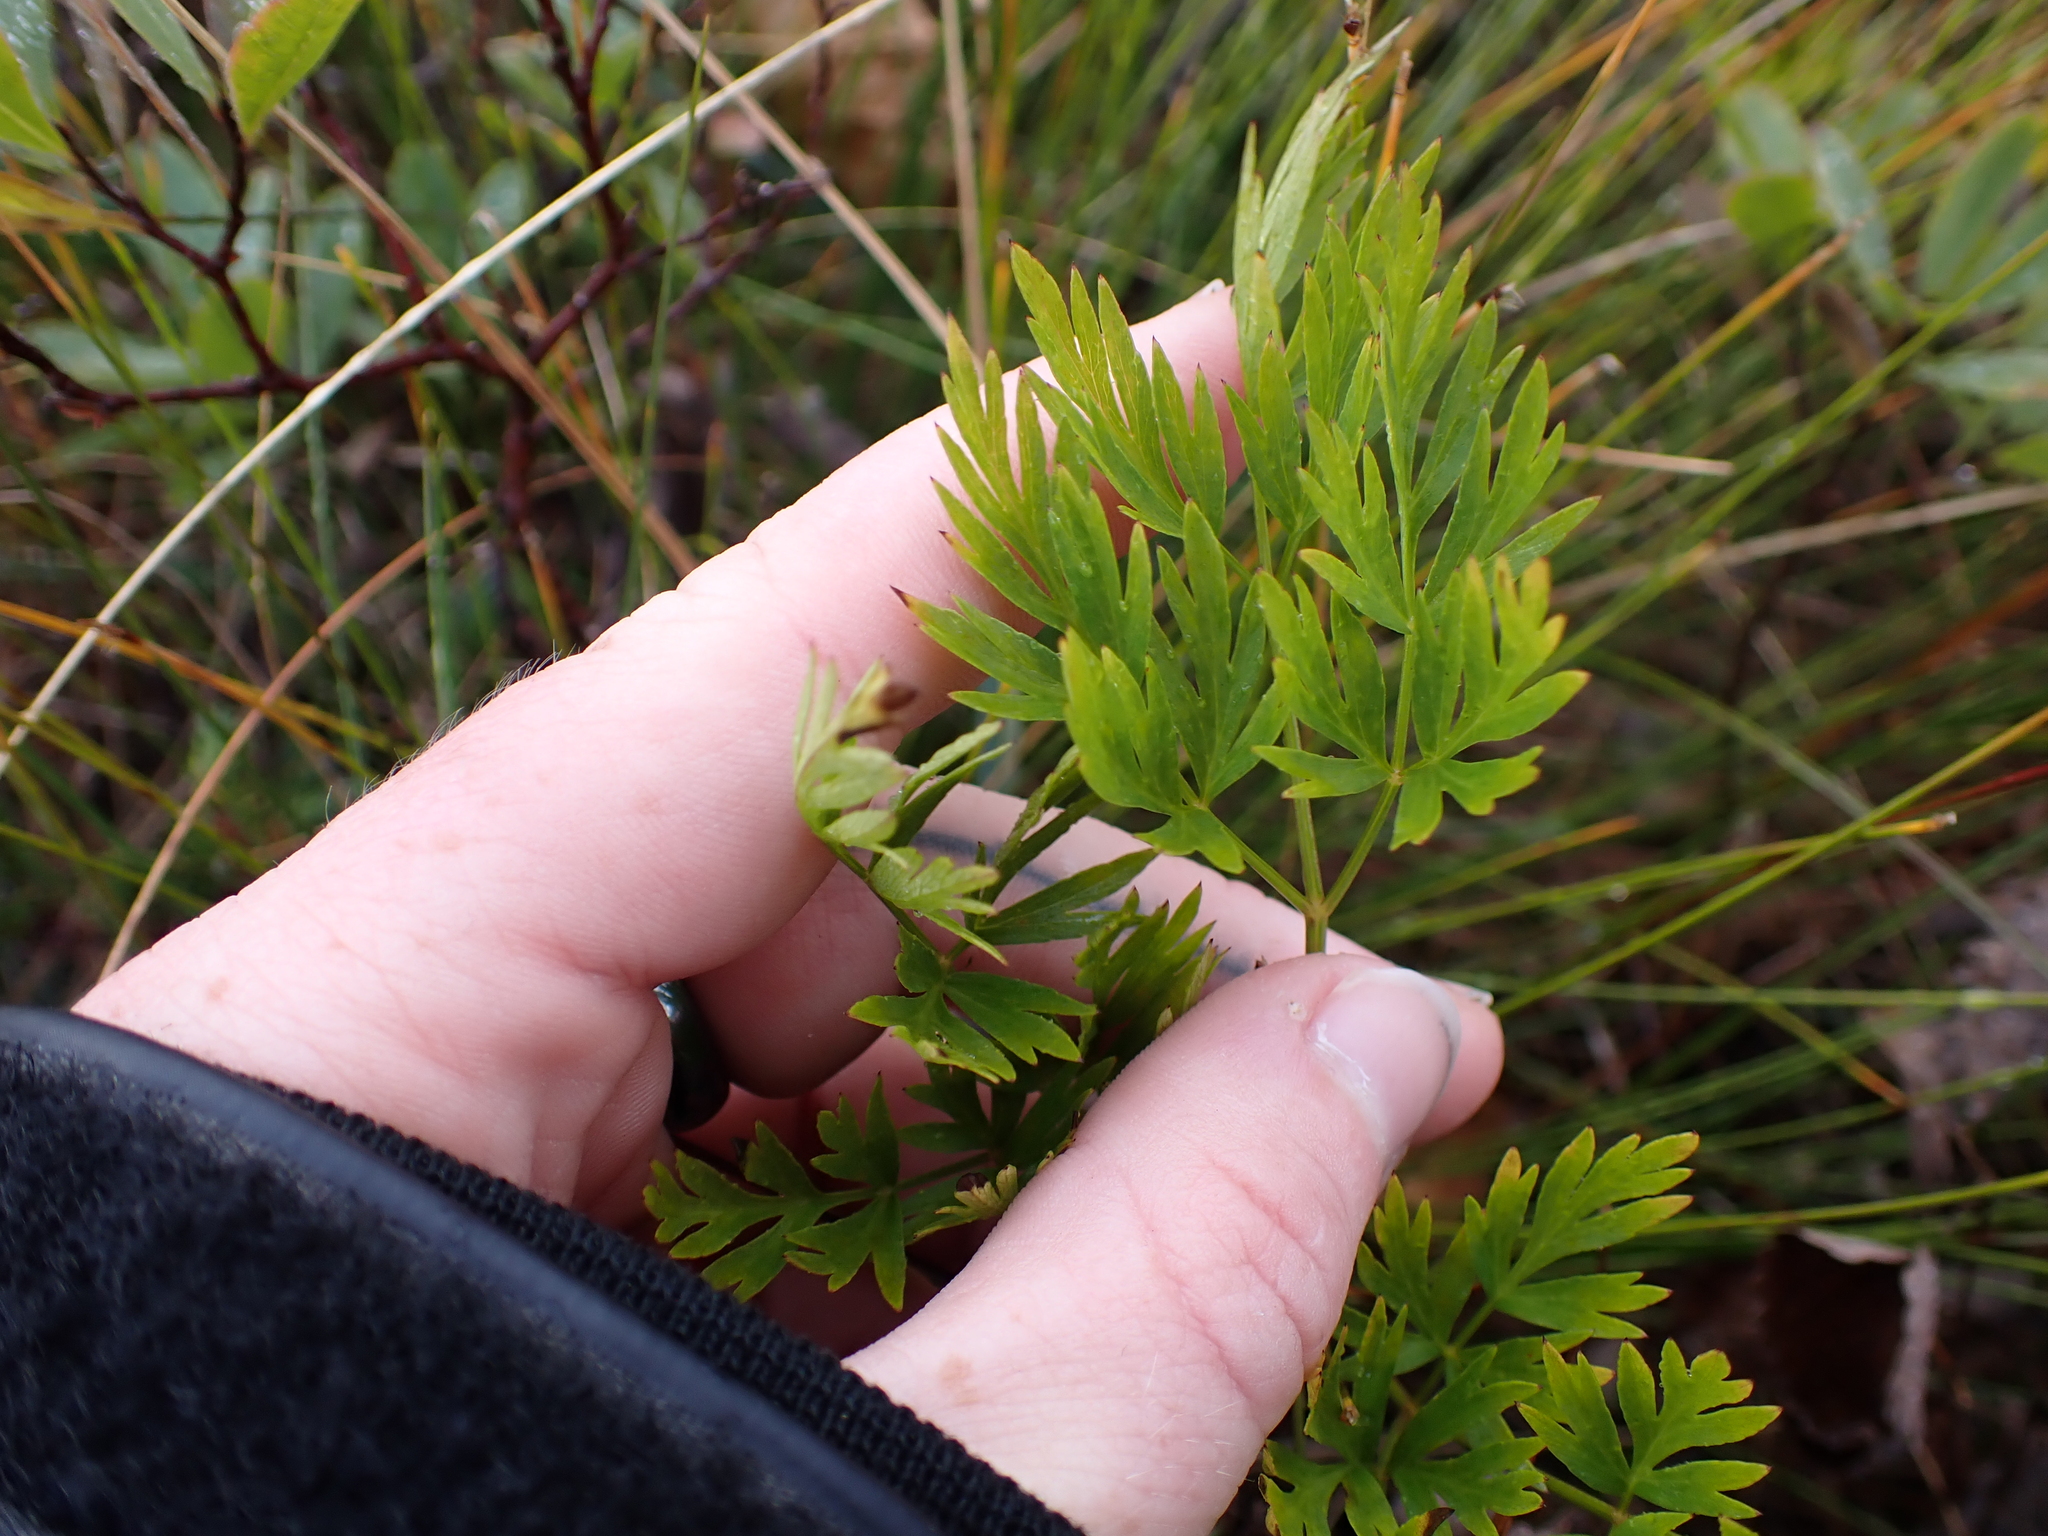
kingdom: Plantae
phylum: Tracheophyta
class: Magnoliopsida
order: Apiales
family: Apiaceae
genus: Ligusticum
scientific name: Ligusticum calderi
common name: Calder's licorice-root
